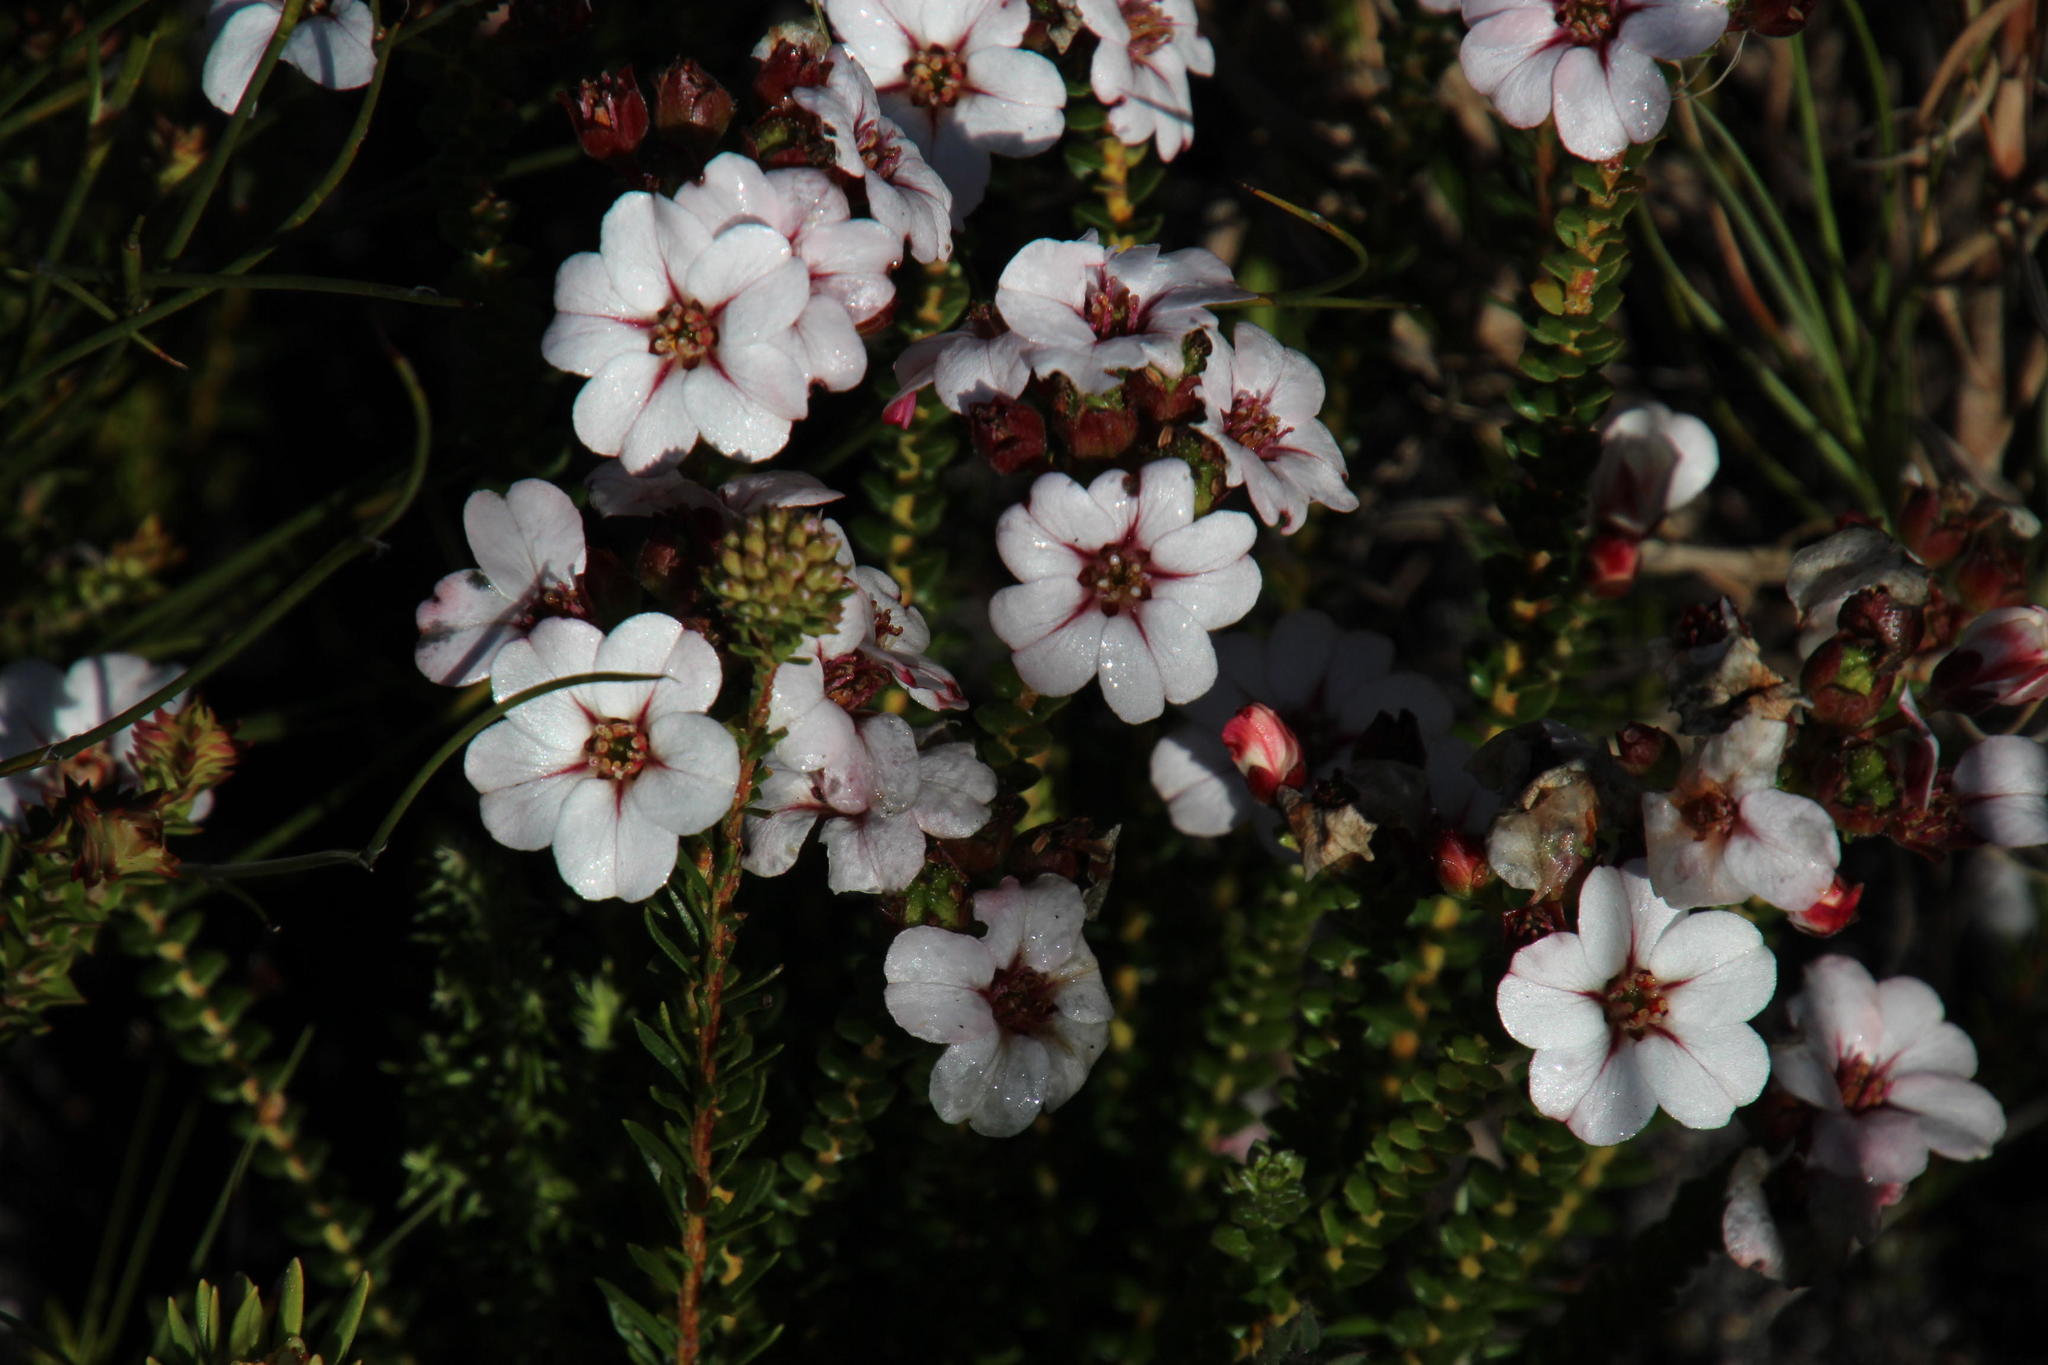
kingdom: Plantae
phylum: Tracheophyta
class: Magnoliopsida
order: Sapindales
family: Rutaceae
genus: Adenandra
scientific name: Adenandra villosa
